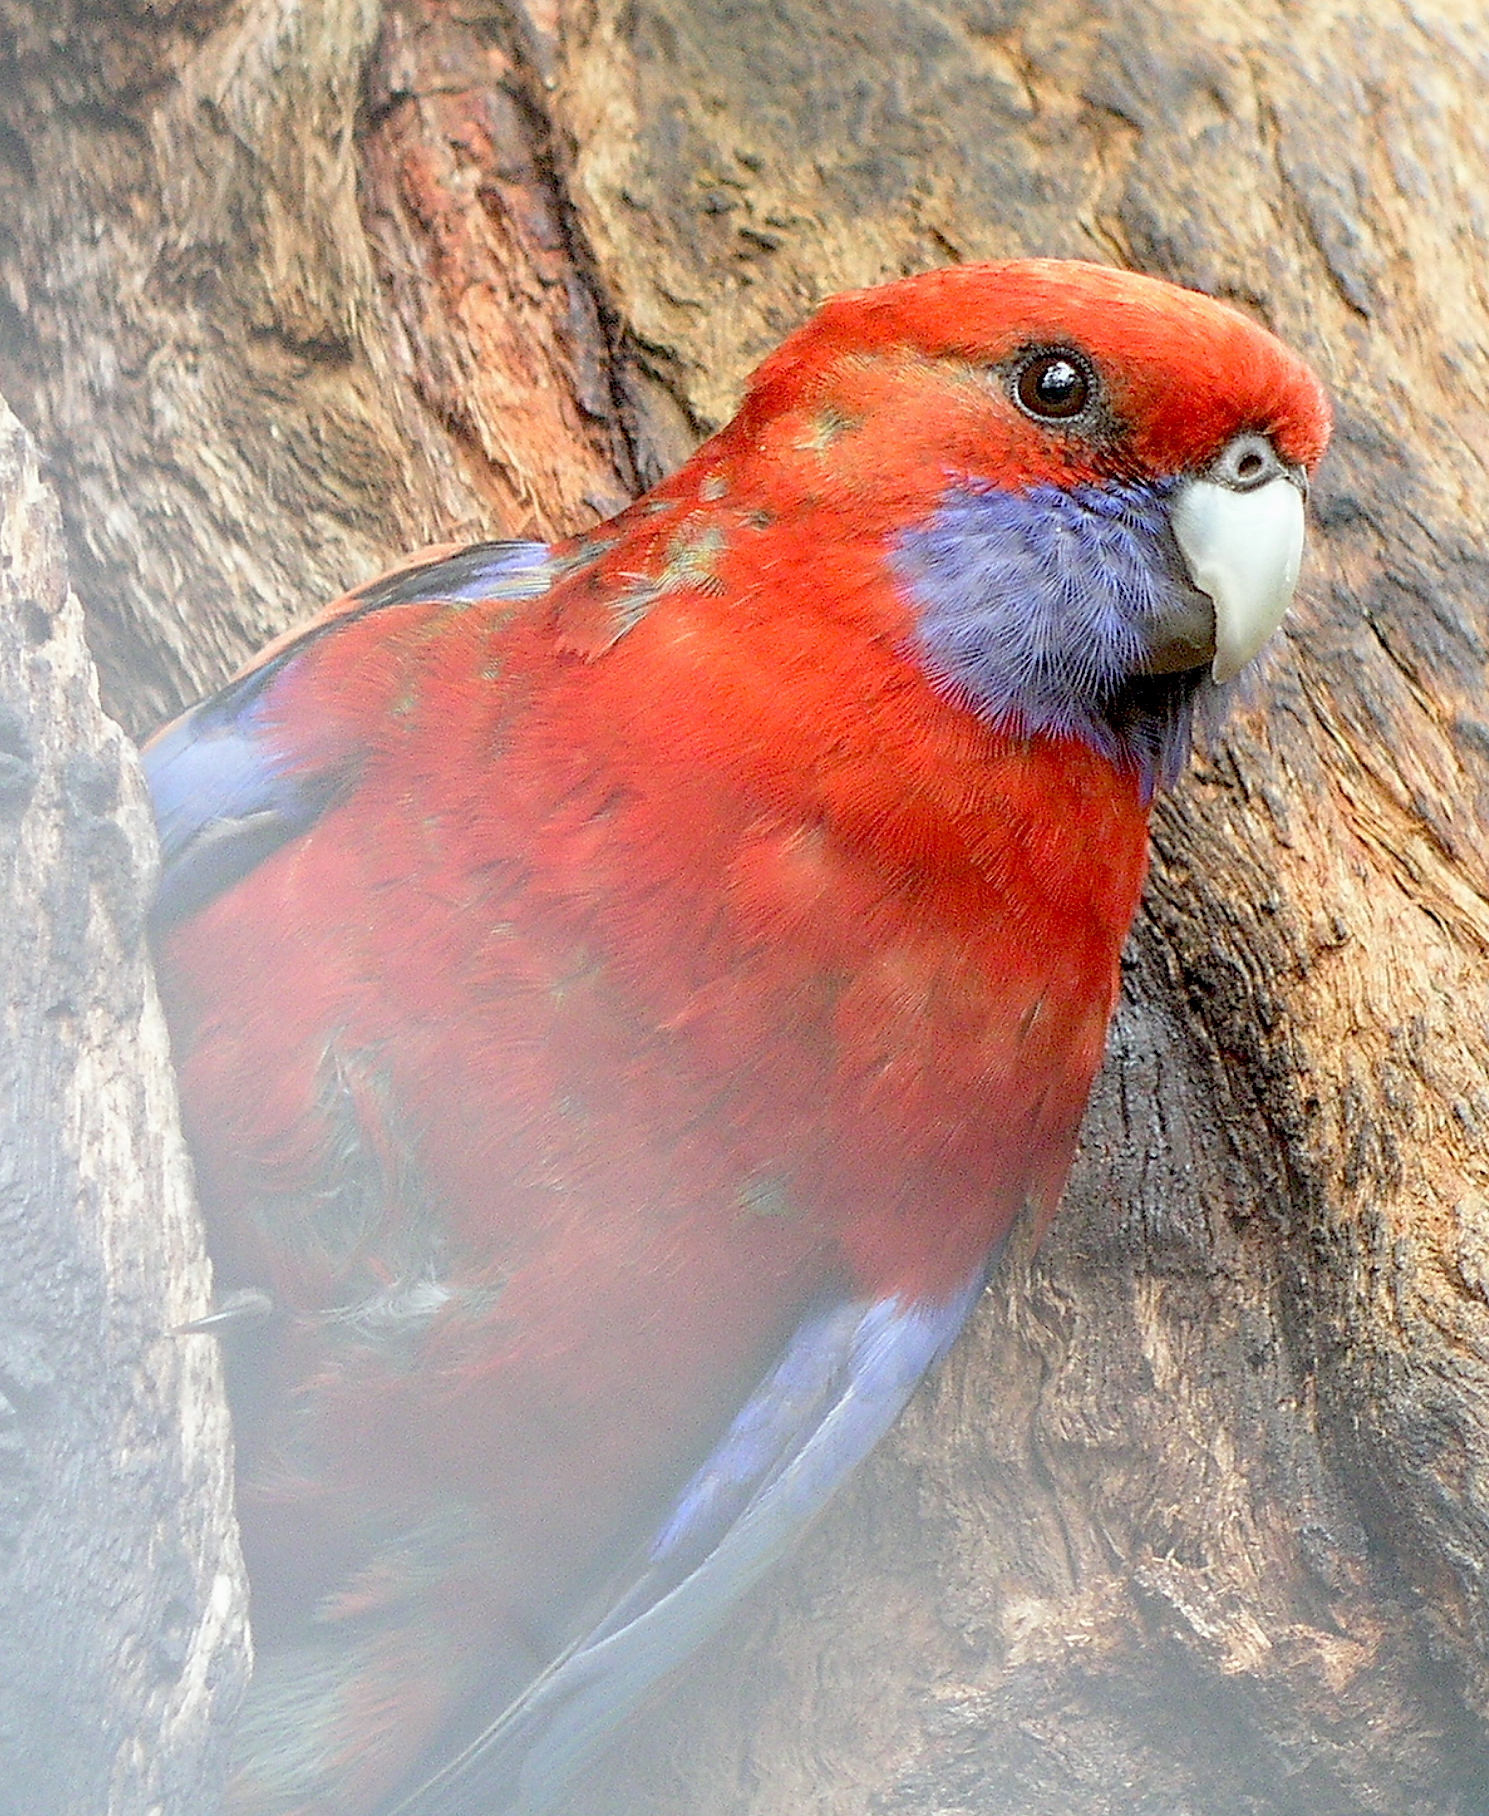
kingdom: Animalia
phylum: Chordata
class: Aves
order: Psittaciformes
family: Psittacidae
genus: Platycercus
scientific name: Platycercus elegans
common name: Crimson rosella
